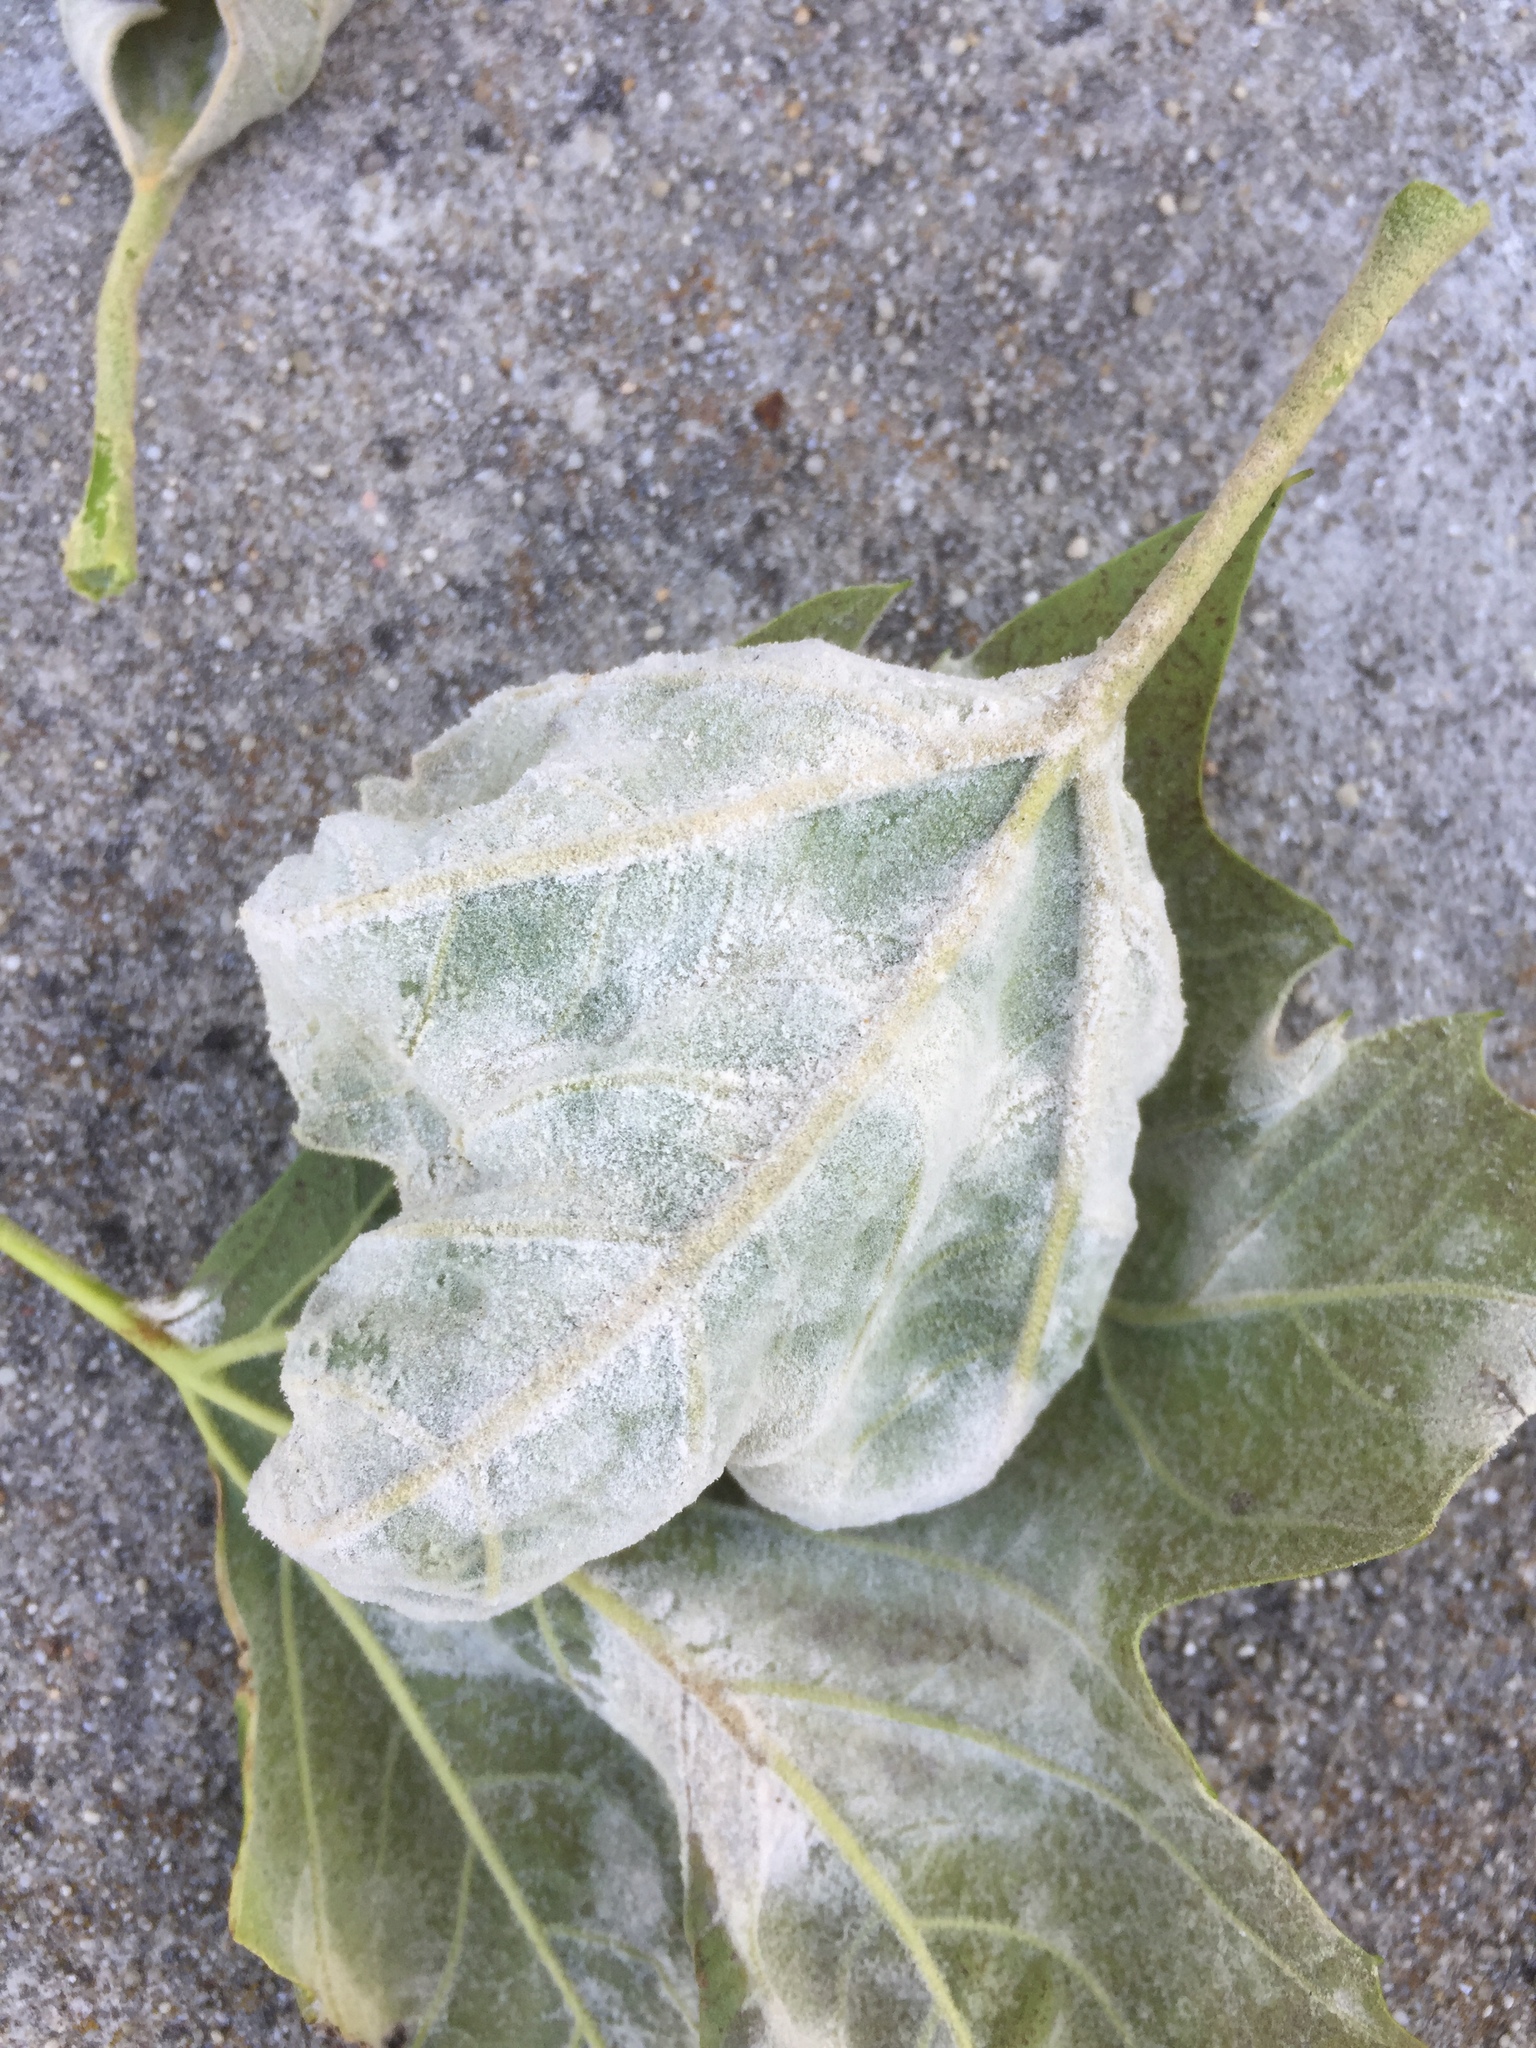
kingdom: Fungi
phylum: Ascomycota
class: Leotiomycetes
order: Helotiales
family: Erysiphaceae
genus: Erysiphe
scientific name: Erysiphe platani
